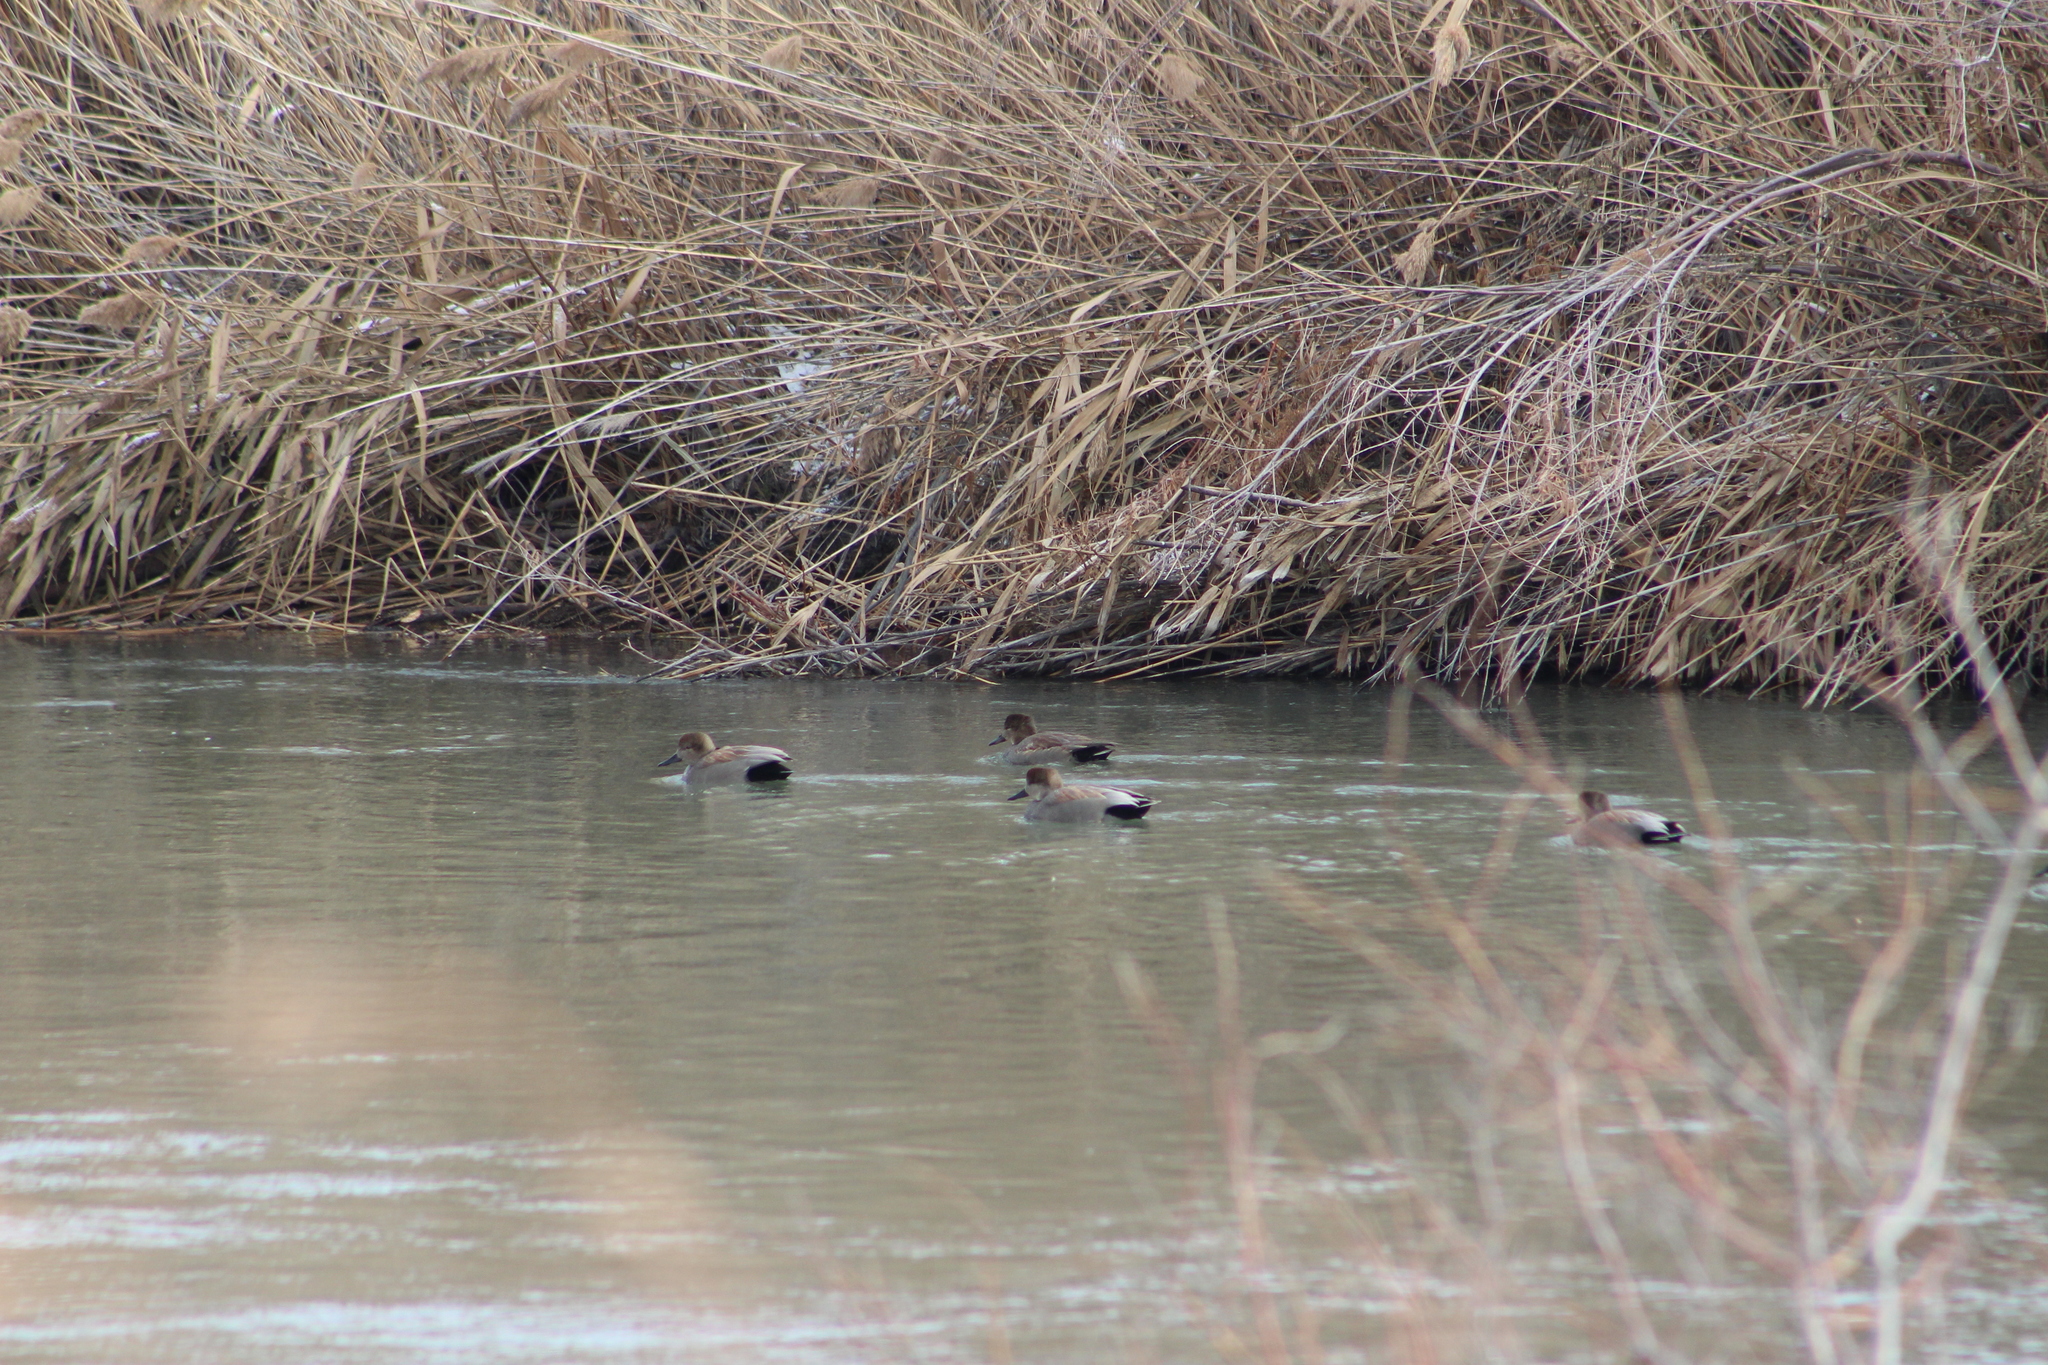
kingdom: Animalia
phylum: Chordata
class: Aves
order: Anseriformes
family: Anatidae
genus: Mareca
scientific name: Mareca strepera
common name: Gadwall
